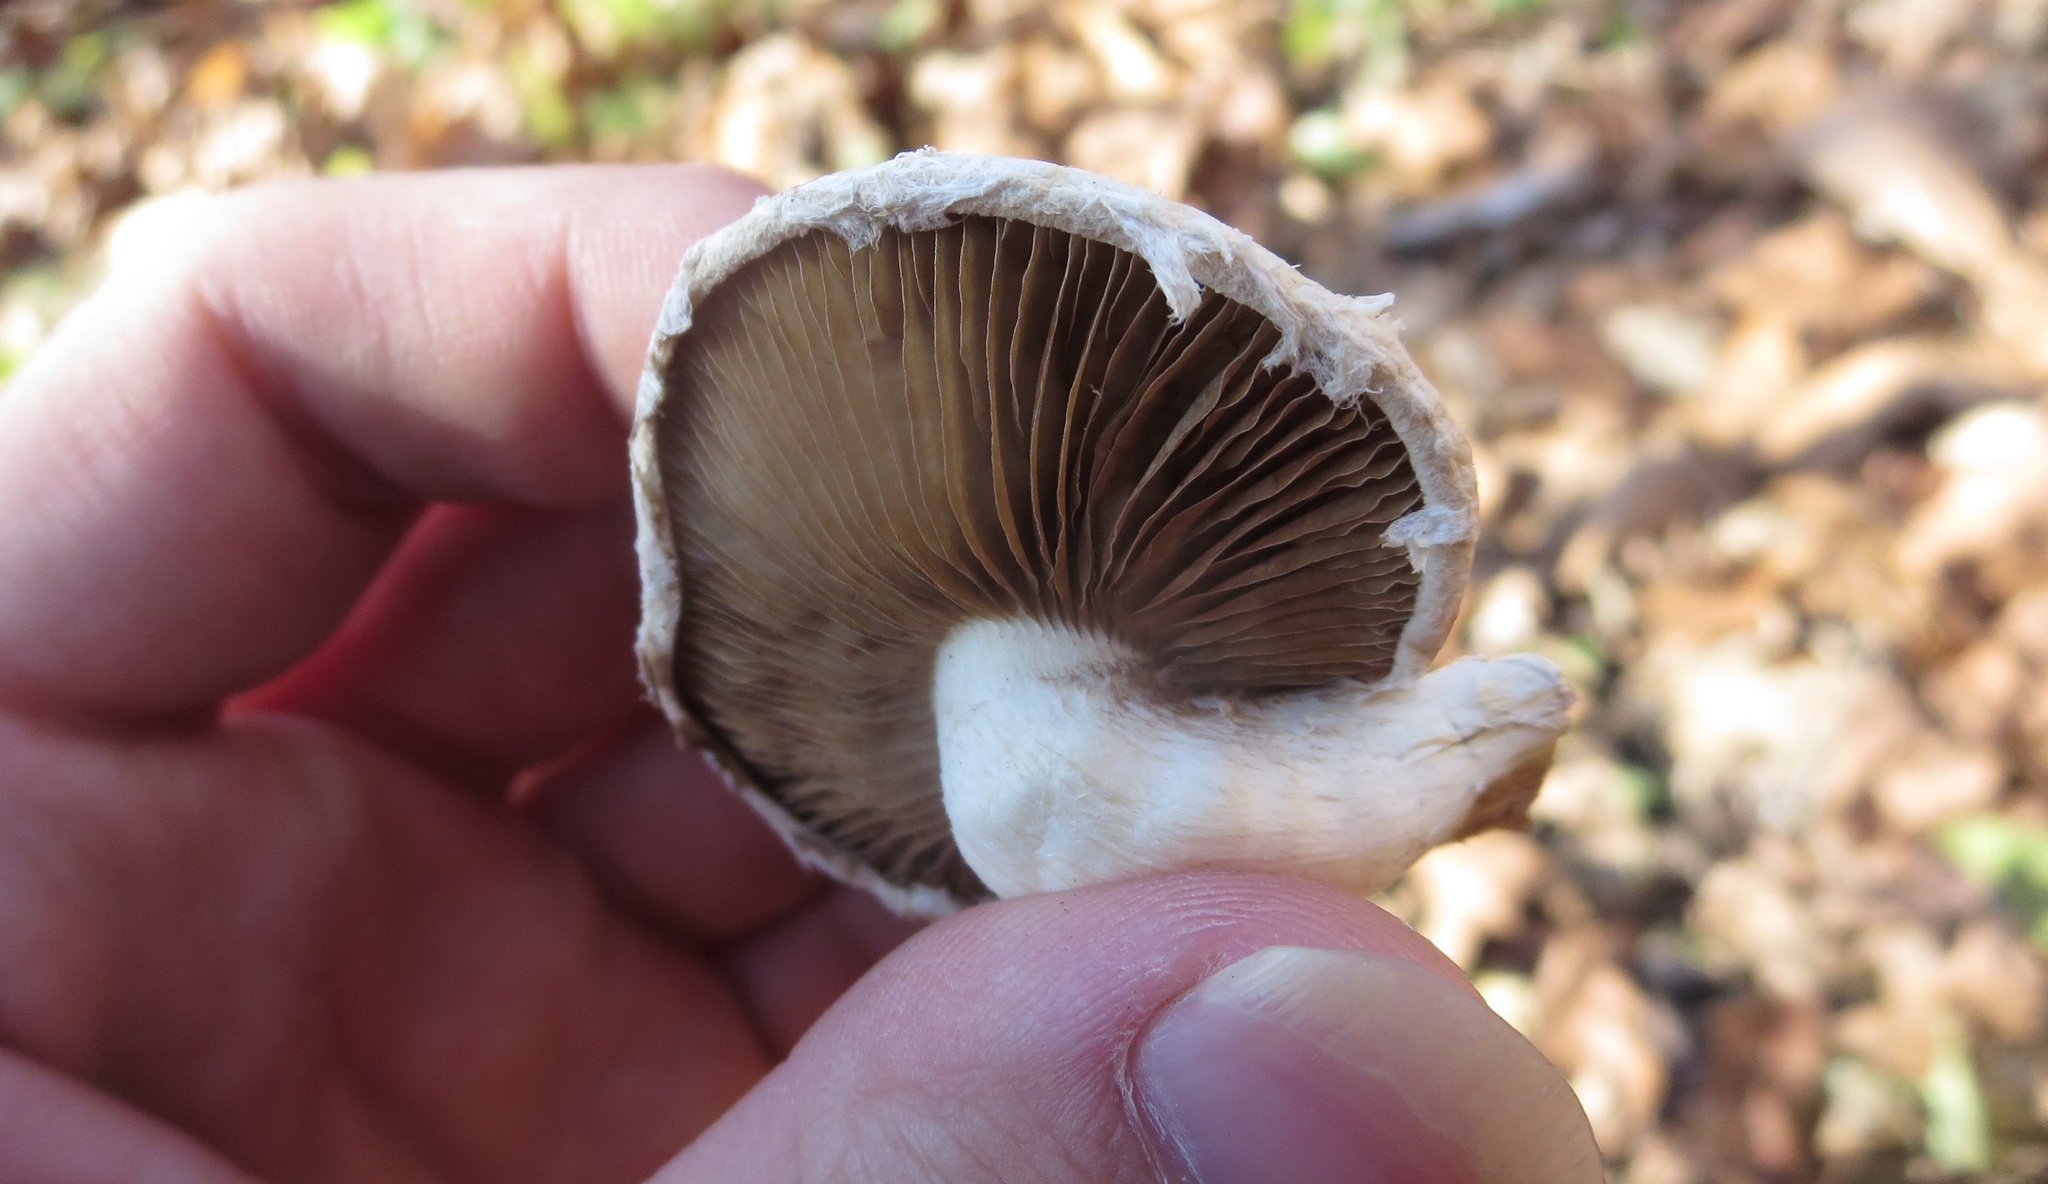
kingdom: Fungi
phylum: Basidiomycota
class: Agaricomycetes
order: Agaricales
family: Strophariaceae
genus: Pholiota
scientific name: Pholiota populnea
